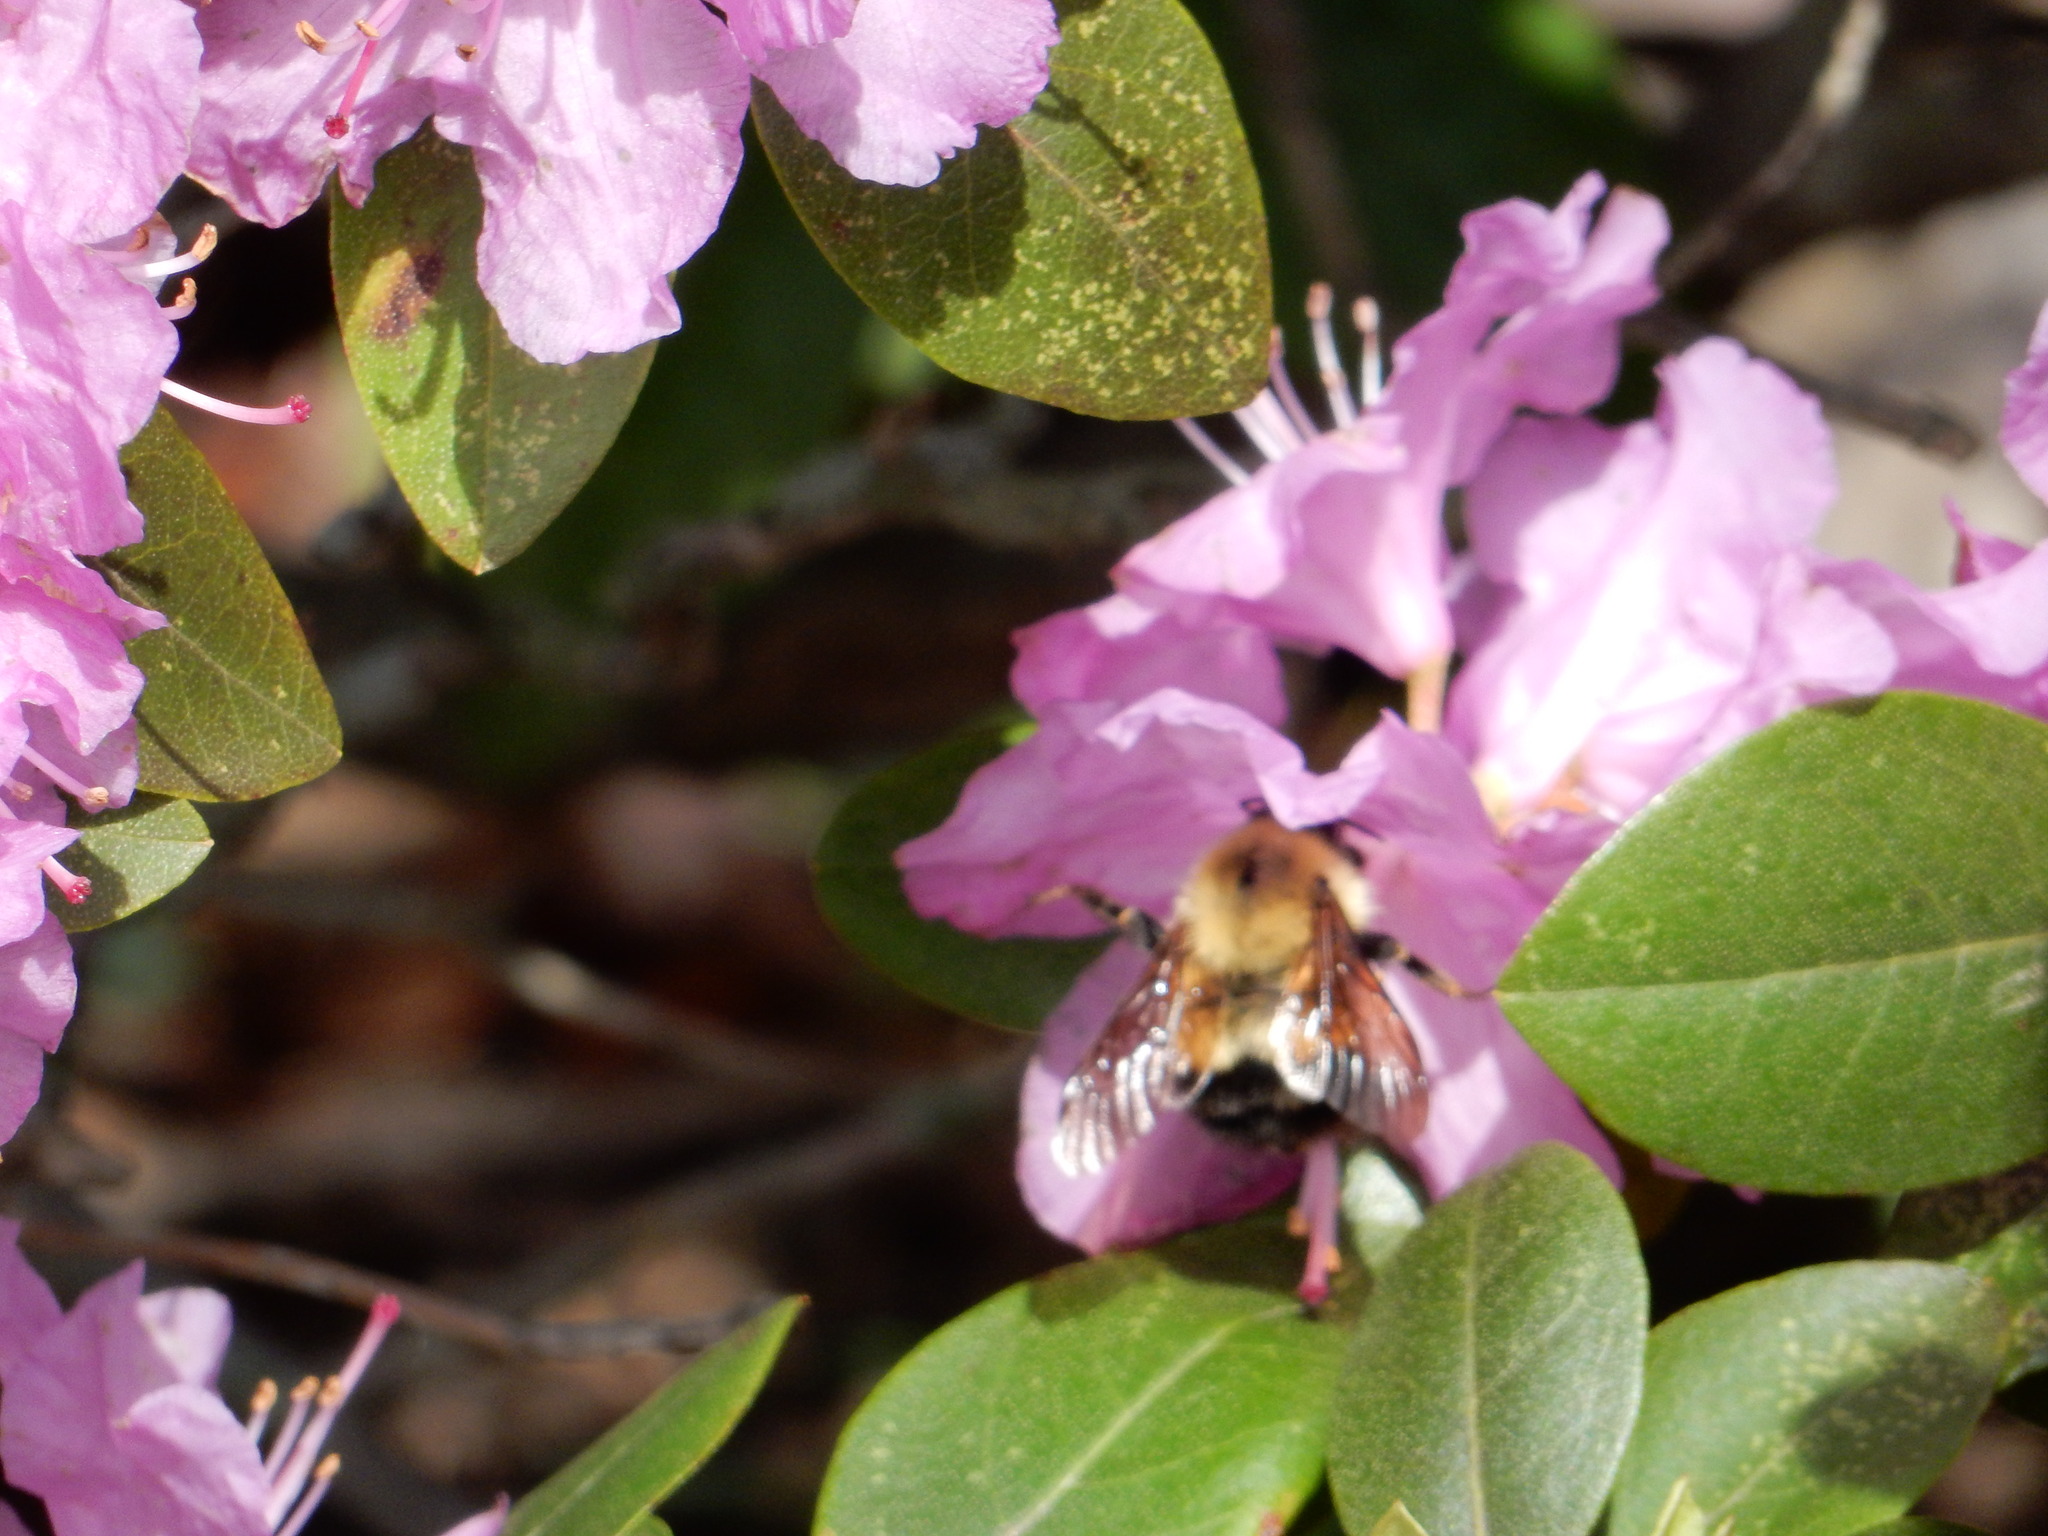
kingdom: Animalia
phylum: Arthropoda
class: Insecta
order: Hymenoptera
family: Apidae
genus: Pyrobombus
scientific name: Pyrobombus
